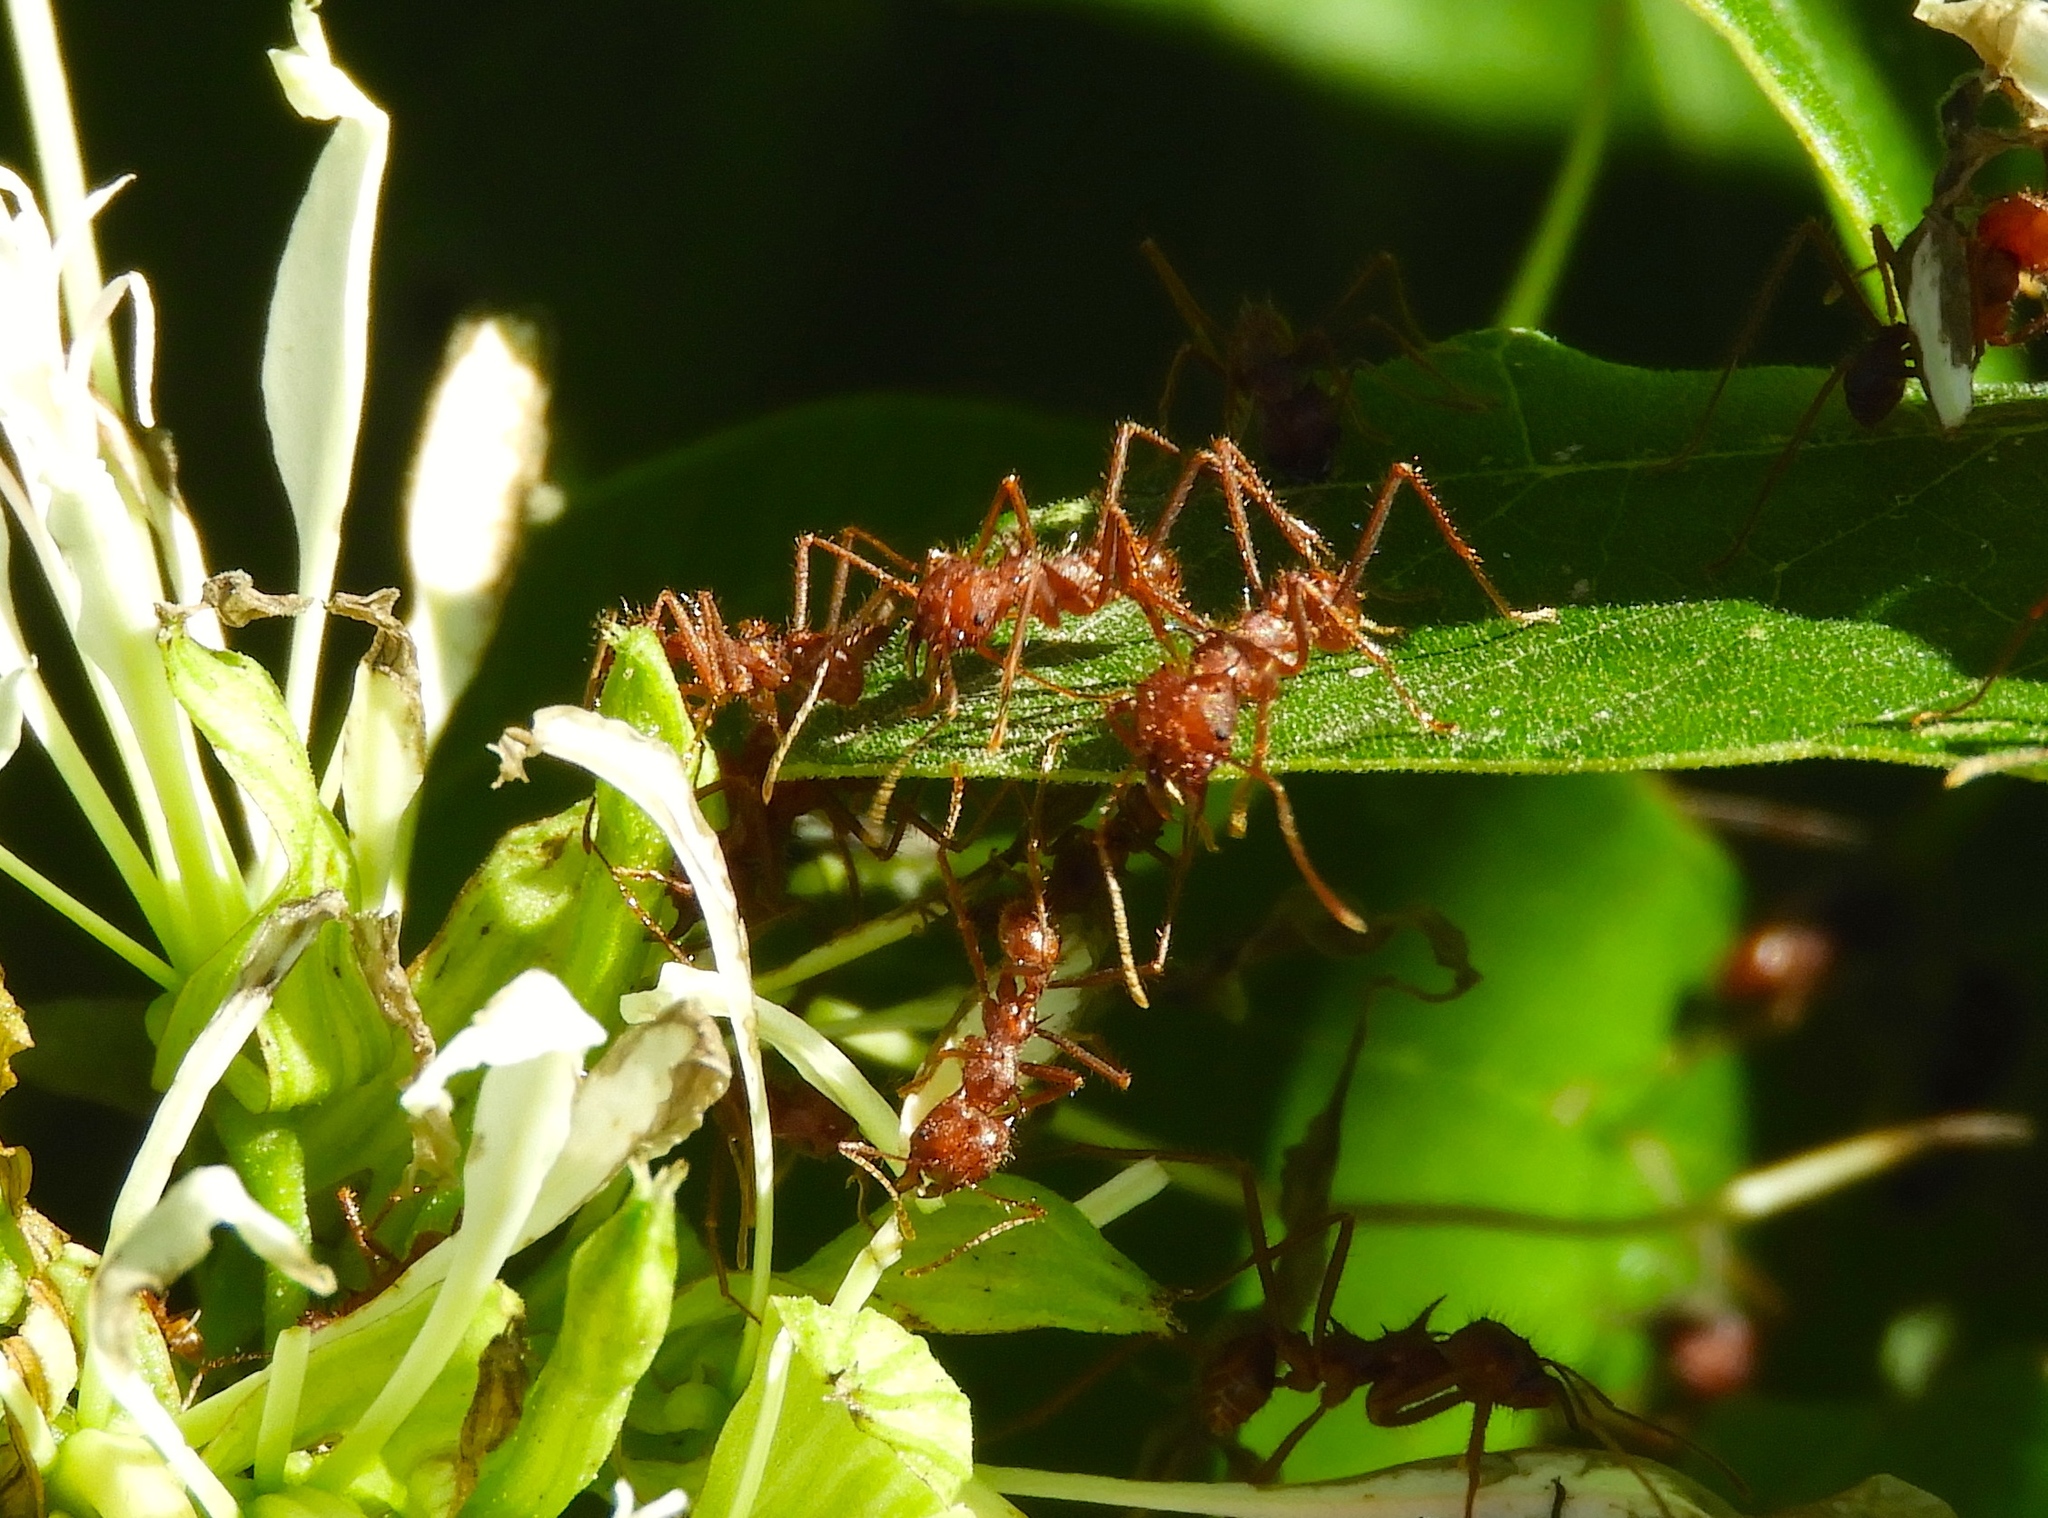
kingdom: Animalia
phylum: Arthropoda
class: Insecta
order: Hymenoptera
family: Formicidae
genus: Atta
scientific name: Atta mexicana
